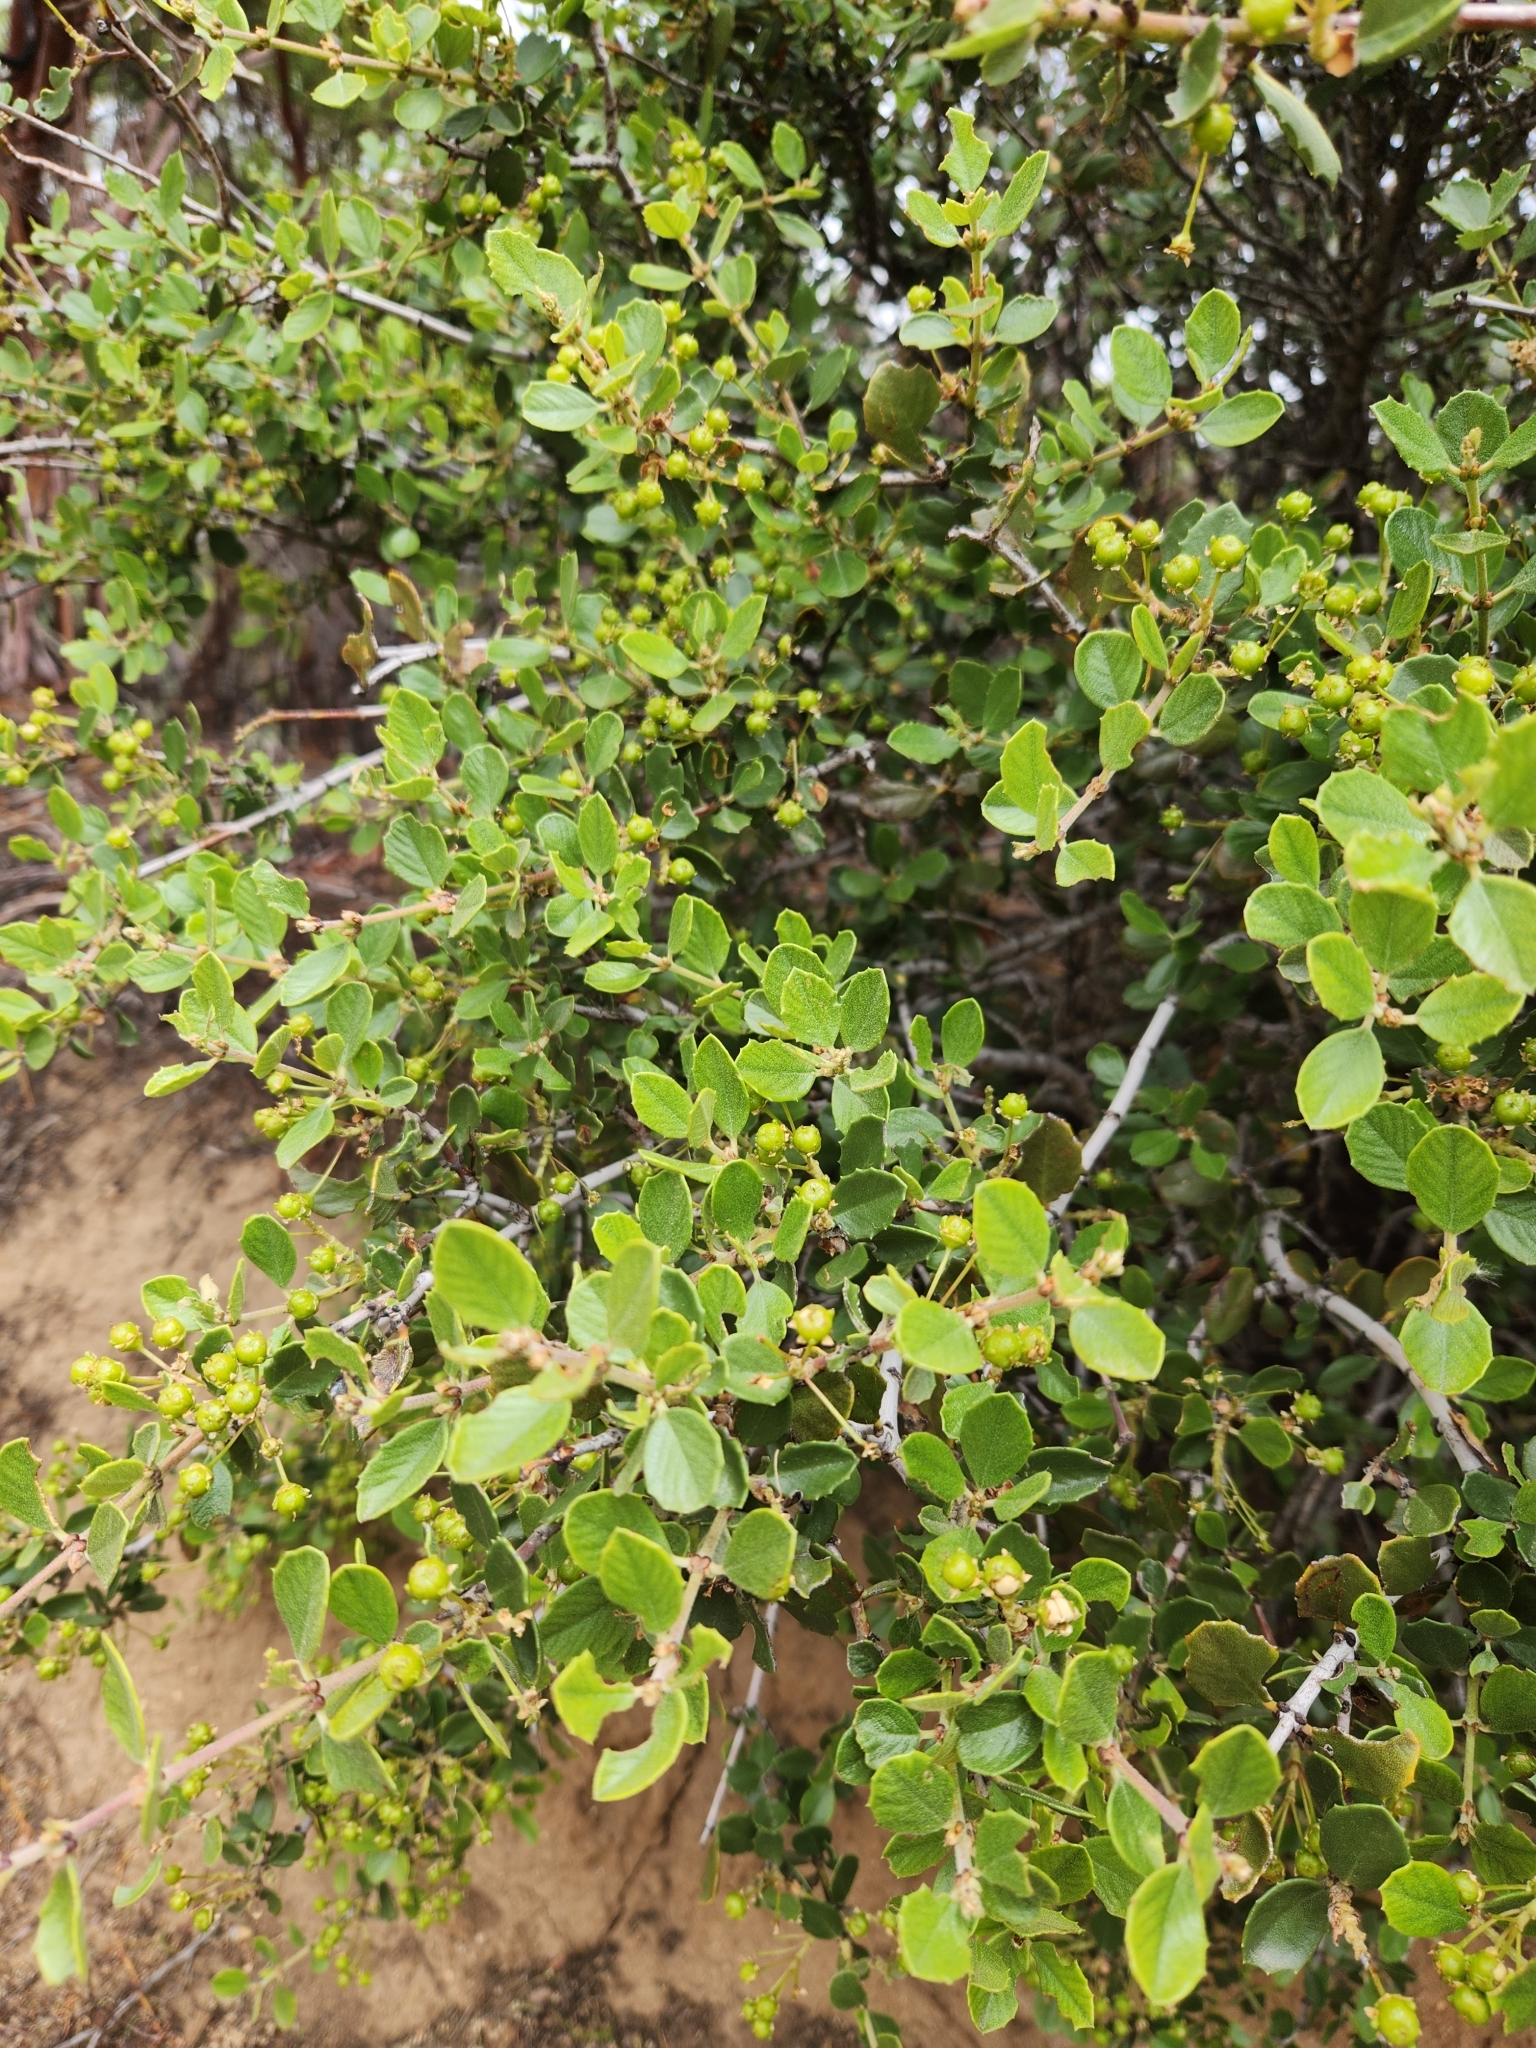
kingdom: Plantae
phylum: Tracheophyta
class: Magnoliopsida
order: Rosales
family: Rhamnaceae
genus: Ceanothus
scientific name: Ceanothus perplexans
